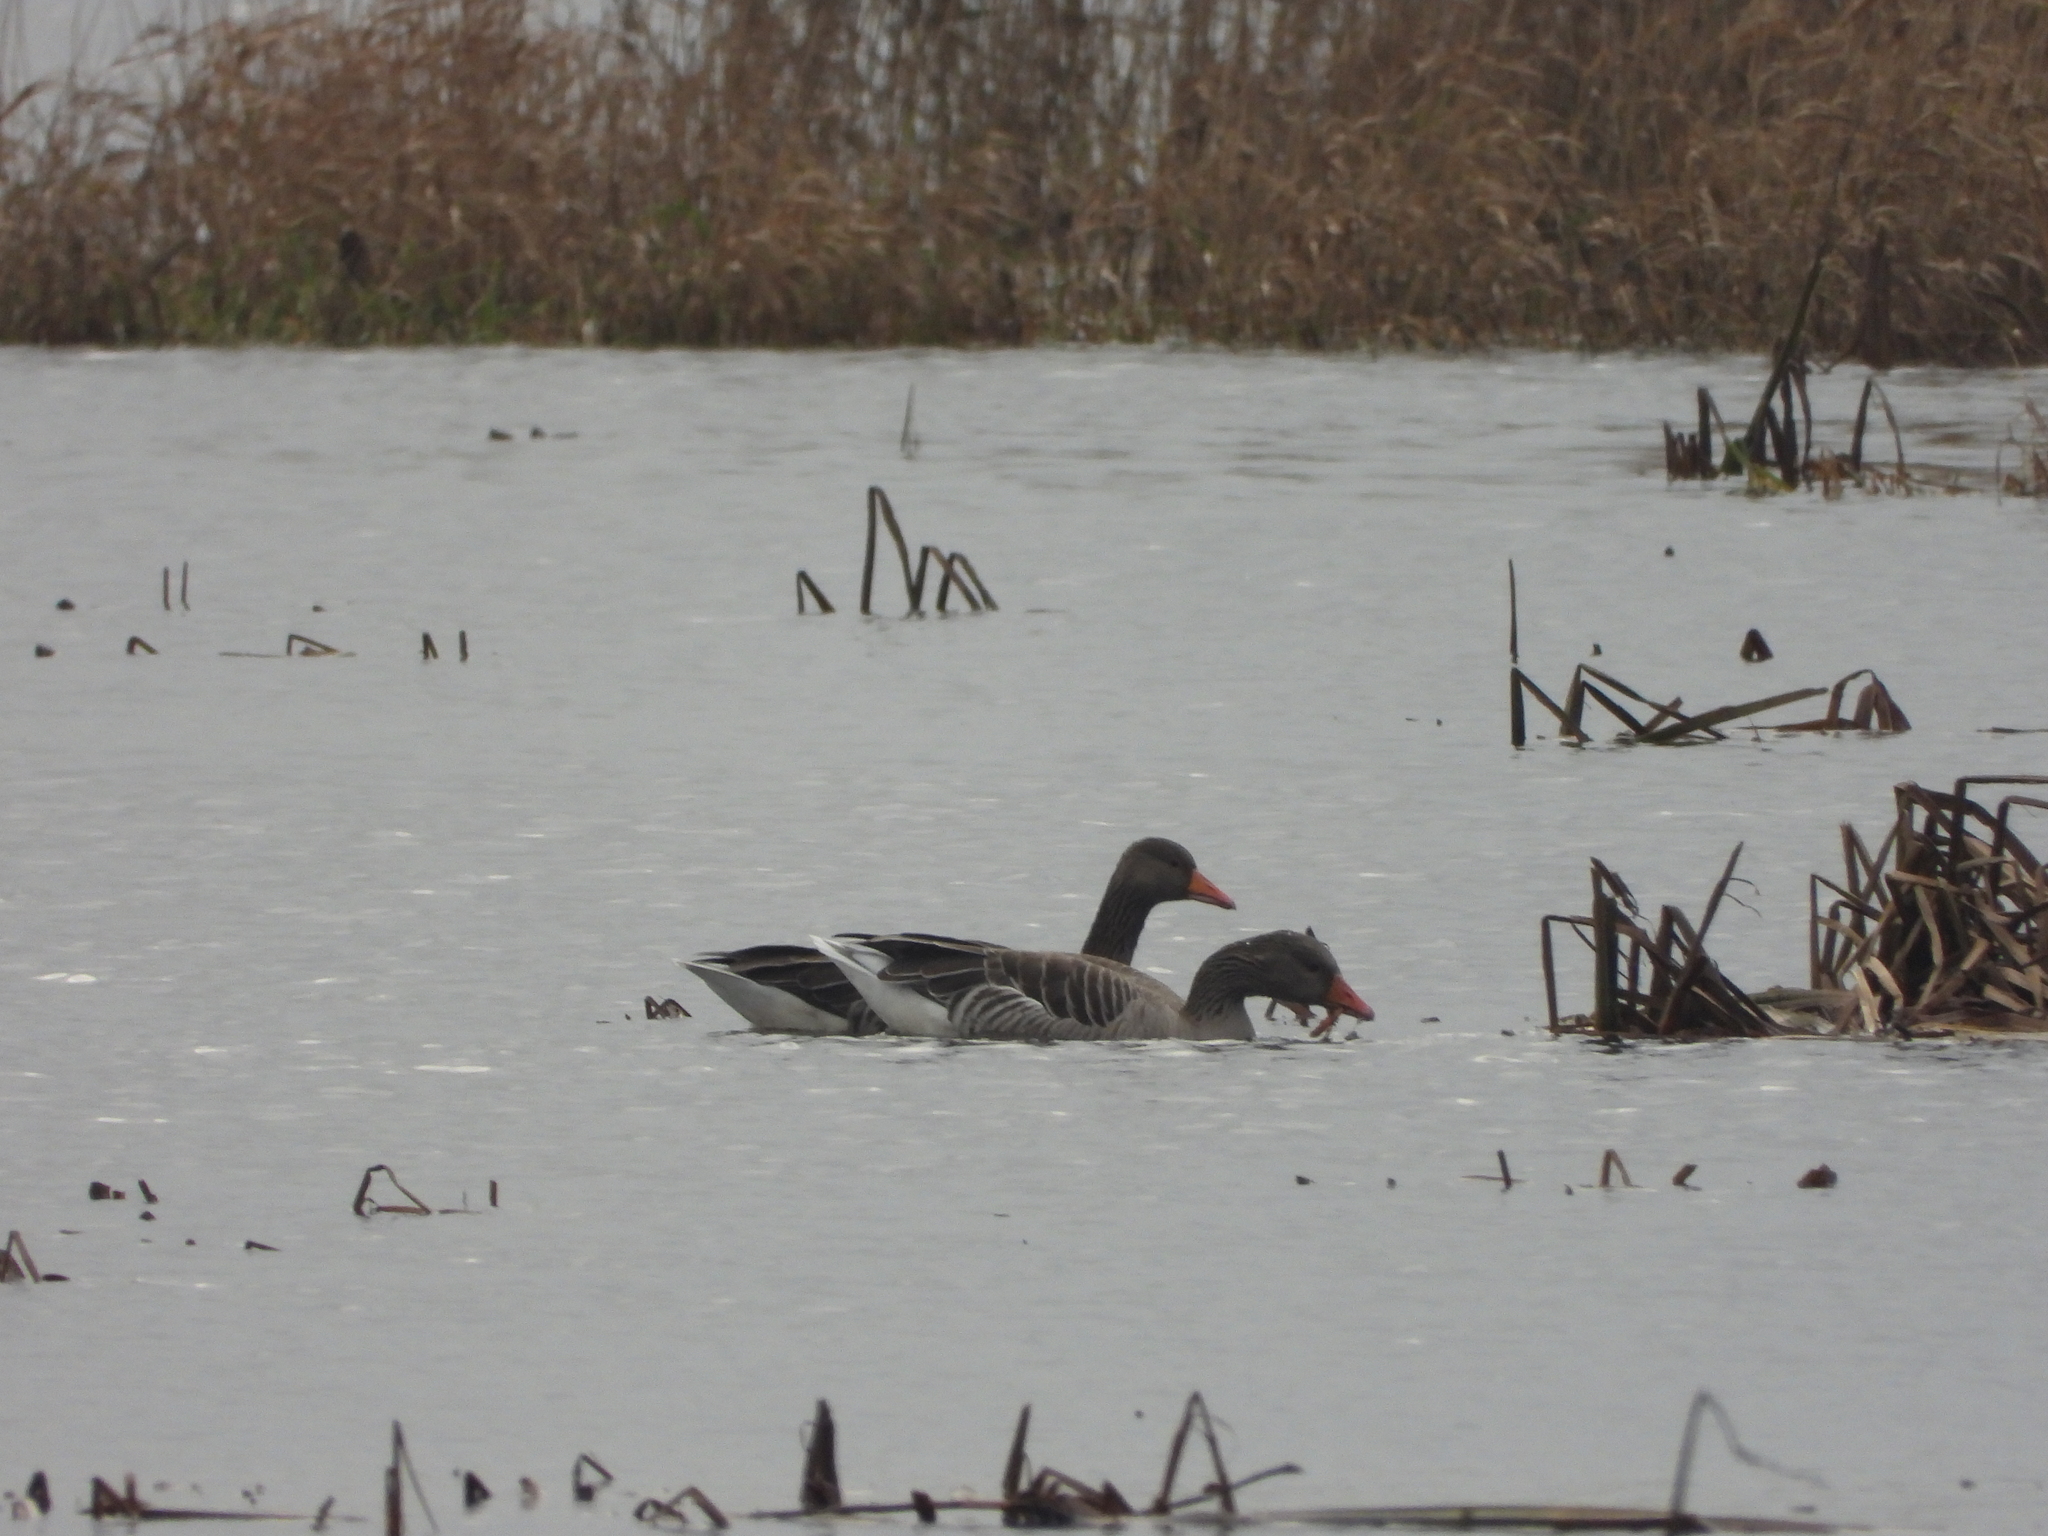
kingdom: Animalia
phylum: Chordata
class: Aves
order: Anseriformes
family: Anatidae
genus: Anser
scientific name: Anser anser
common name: Greylag goose
